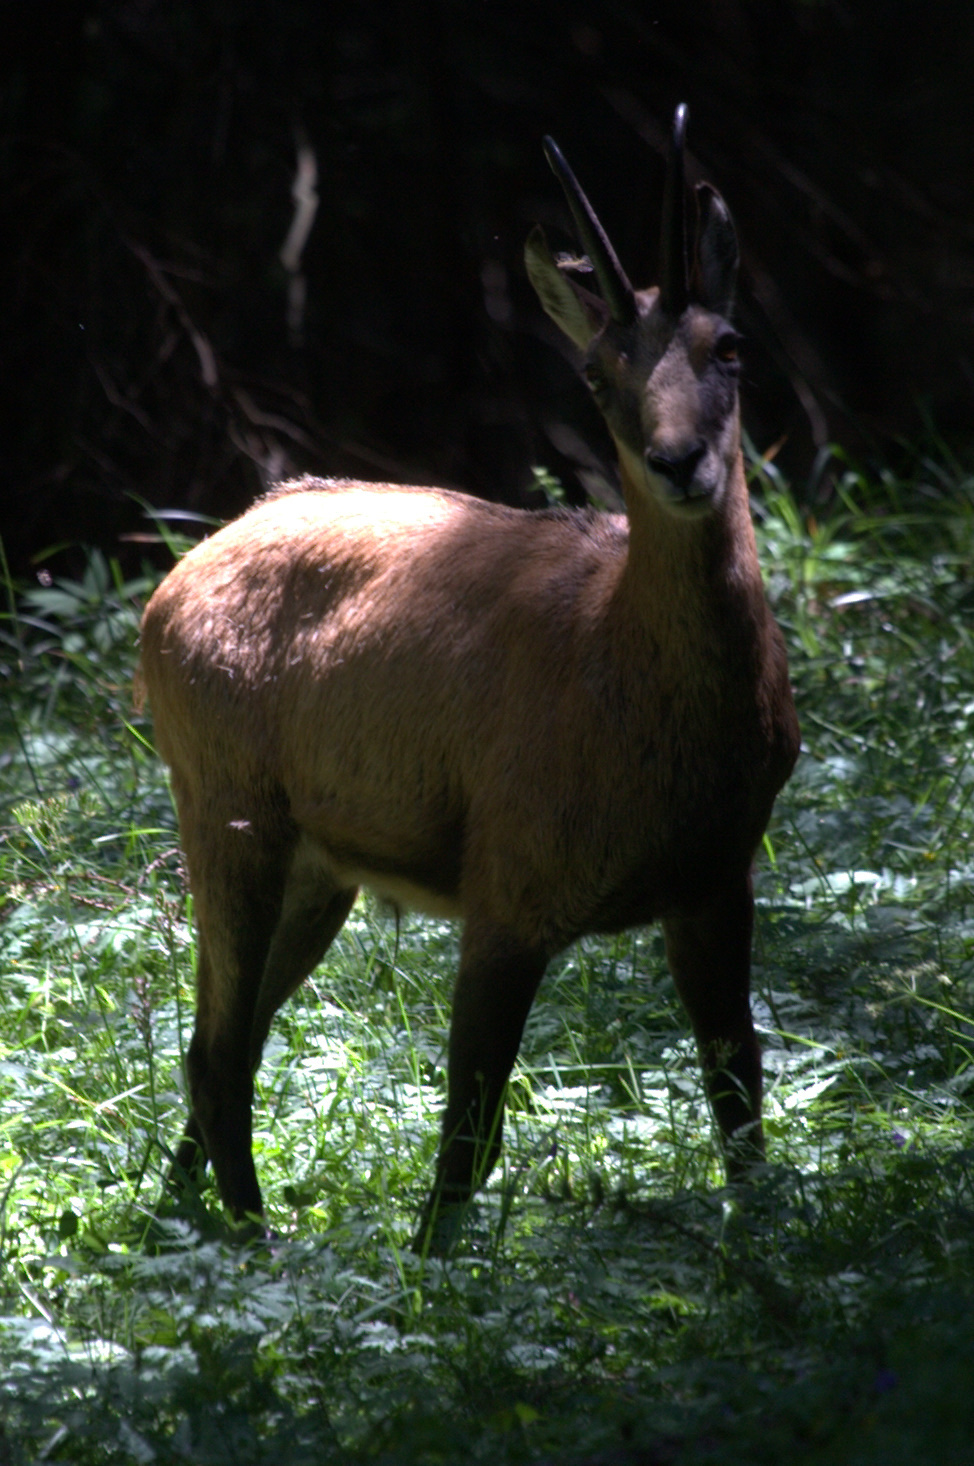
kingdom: Animalia
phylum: Chordata
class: Mammalia
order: Artiodactyla
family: Bovidae
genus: Rupicapra
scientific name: Rupicapra rupicapra
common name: Chamois
